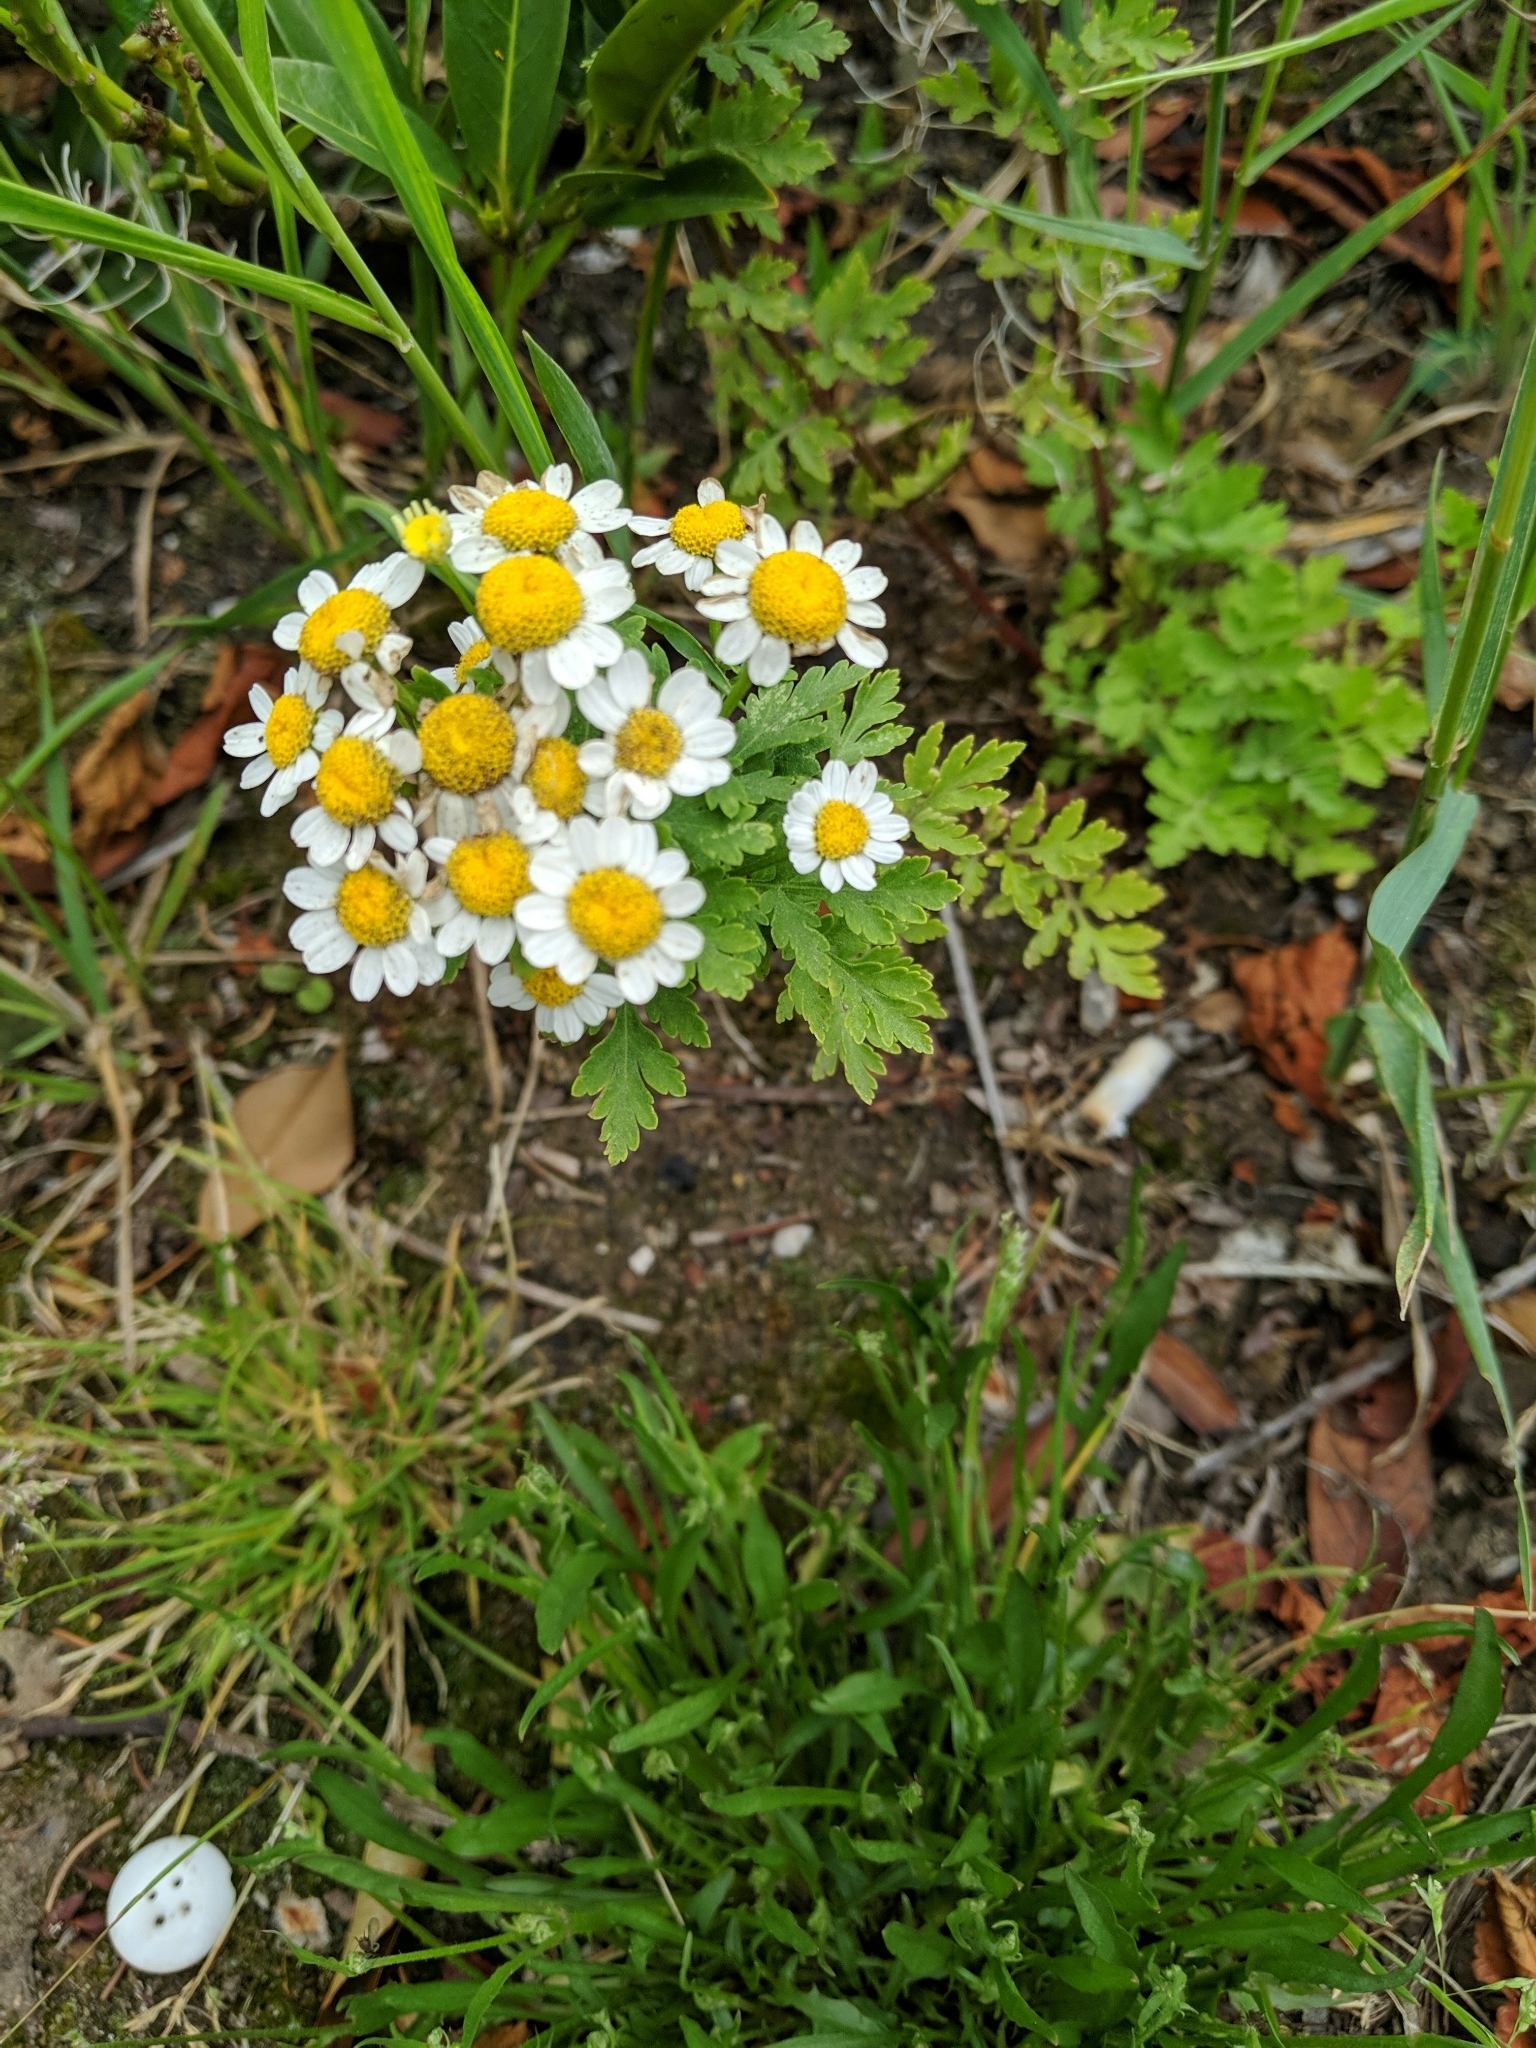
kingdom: Plantae
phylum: Tracheophyta
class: Magnoliopsida
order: Asterales
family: Asteraceae
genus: Tanacetum
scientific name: Tanacetum parthenium
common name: Feverfew
